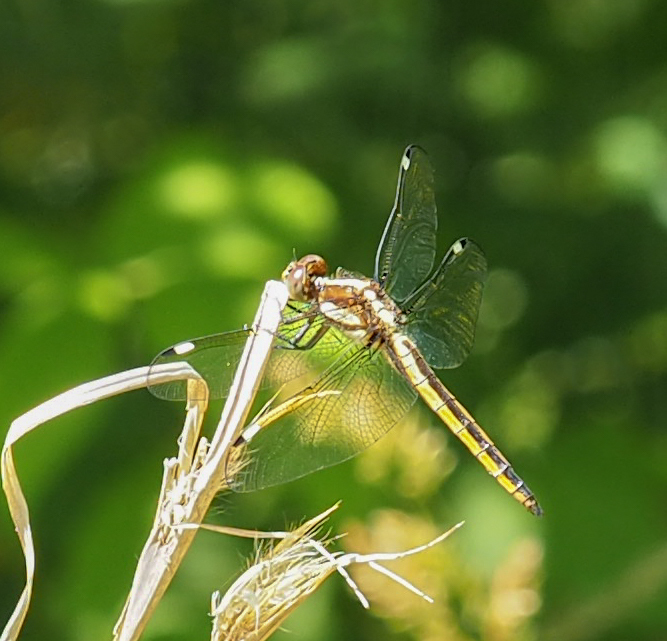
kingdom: Animalia
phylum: Arthropoda
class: Insecta
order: Odonata
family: Libellulidae
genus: Libellula
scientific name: Libellula cyanea
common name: Spangled skimmer
